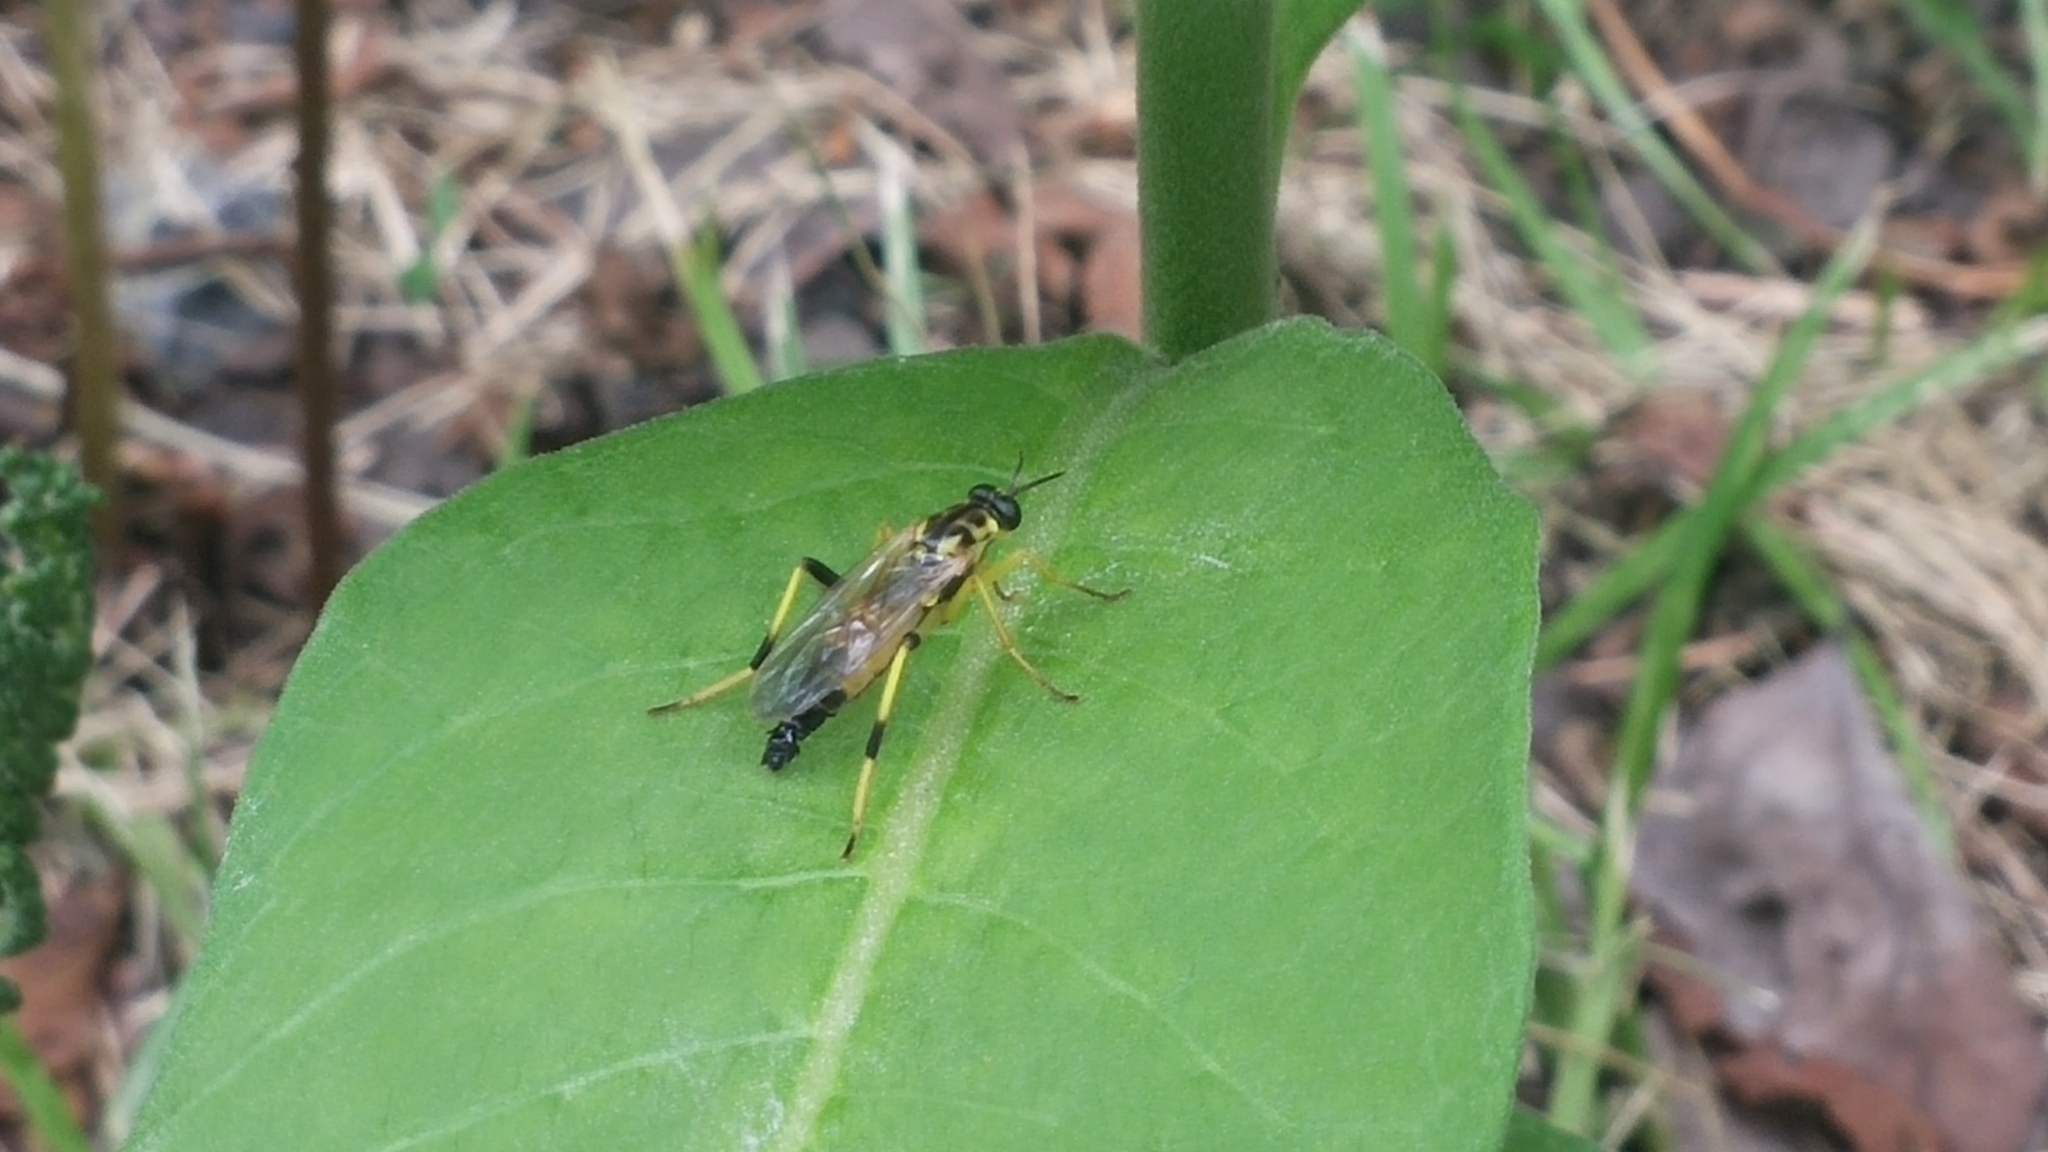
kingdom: Animalia
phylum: Arthropoda
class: Insecta
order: Diptera
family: Xylomyidae
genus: Xylomya
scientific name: Xylomya terminalis
